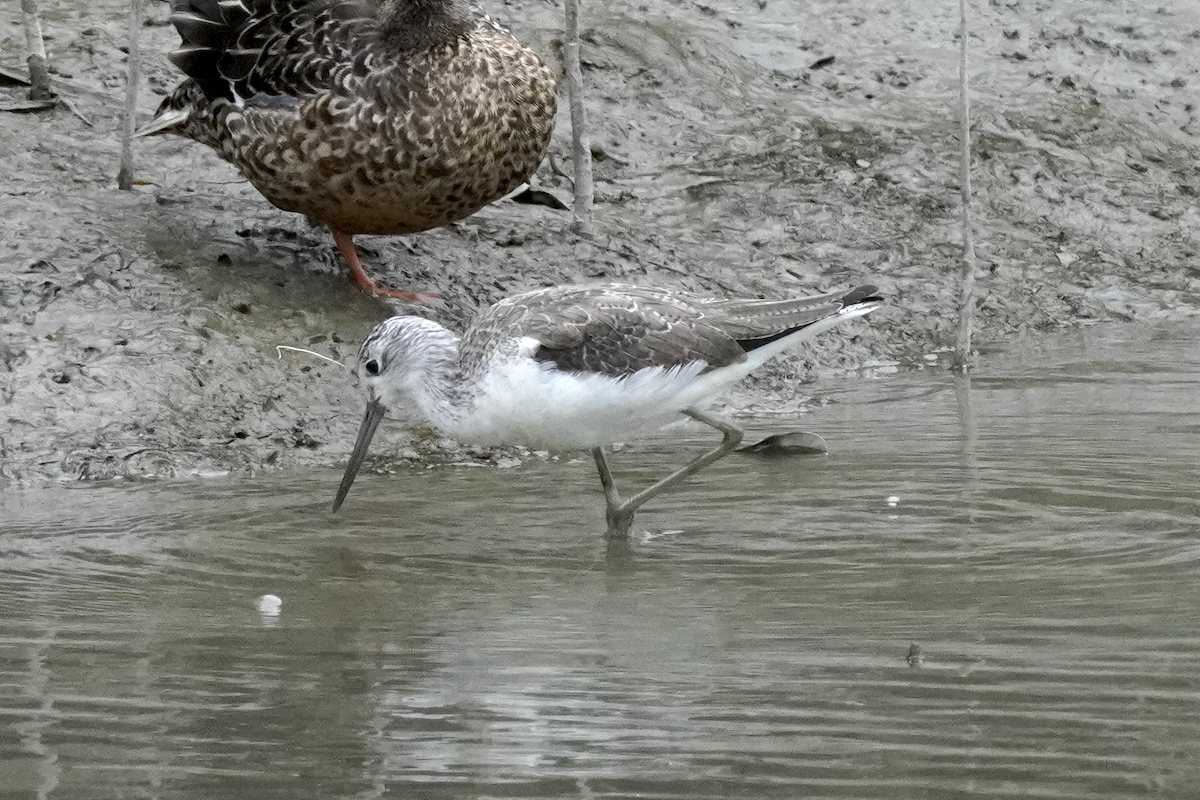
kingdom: Animalia
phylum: Chordata
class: Aves
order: Charadriiformes
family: Scolopacidae
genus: Tringa
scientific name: Tringa nebularia
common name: Common greenshank
